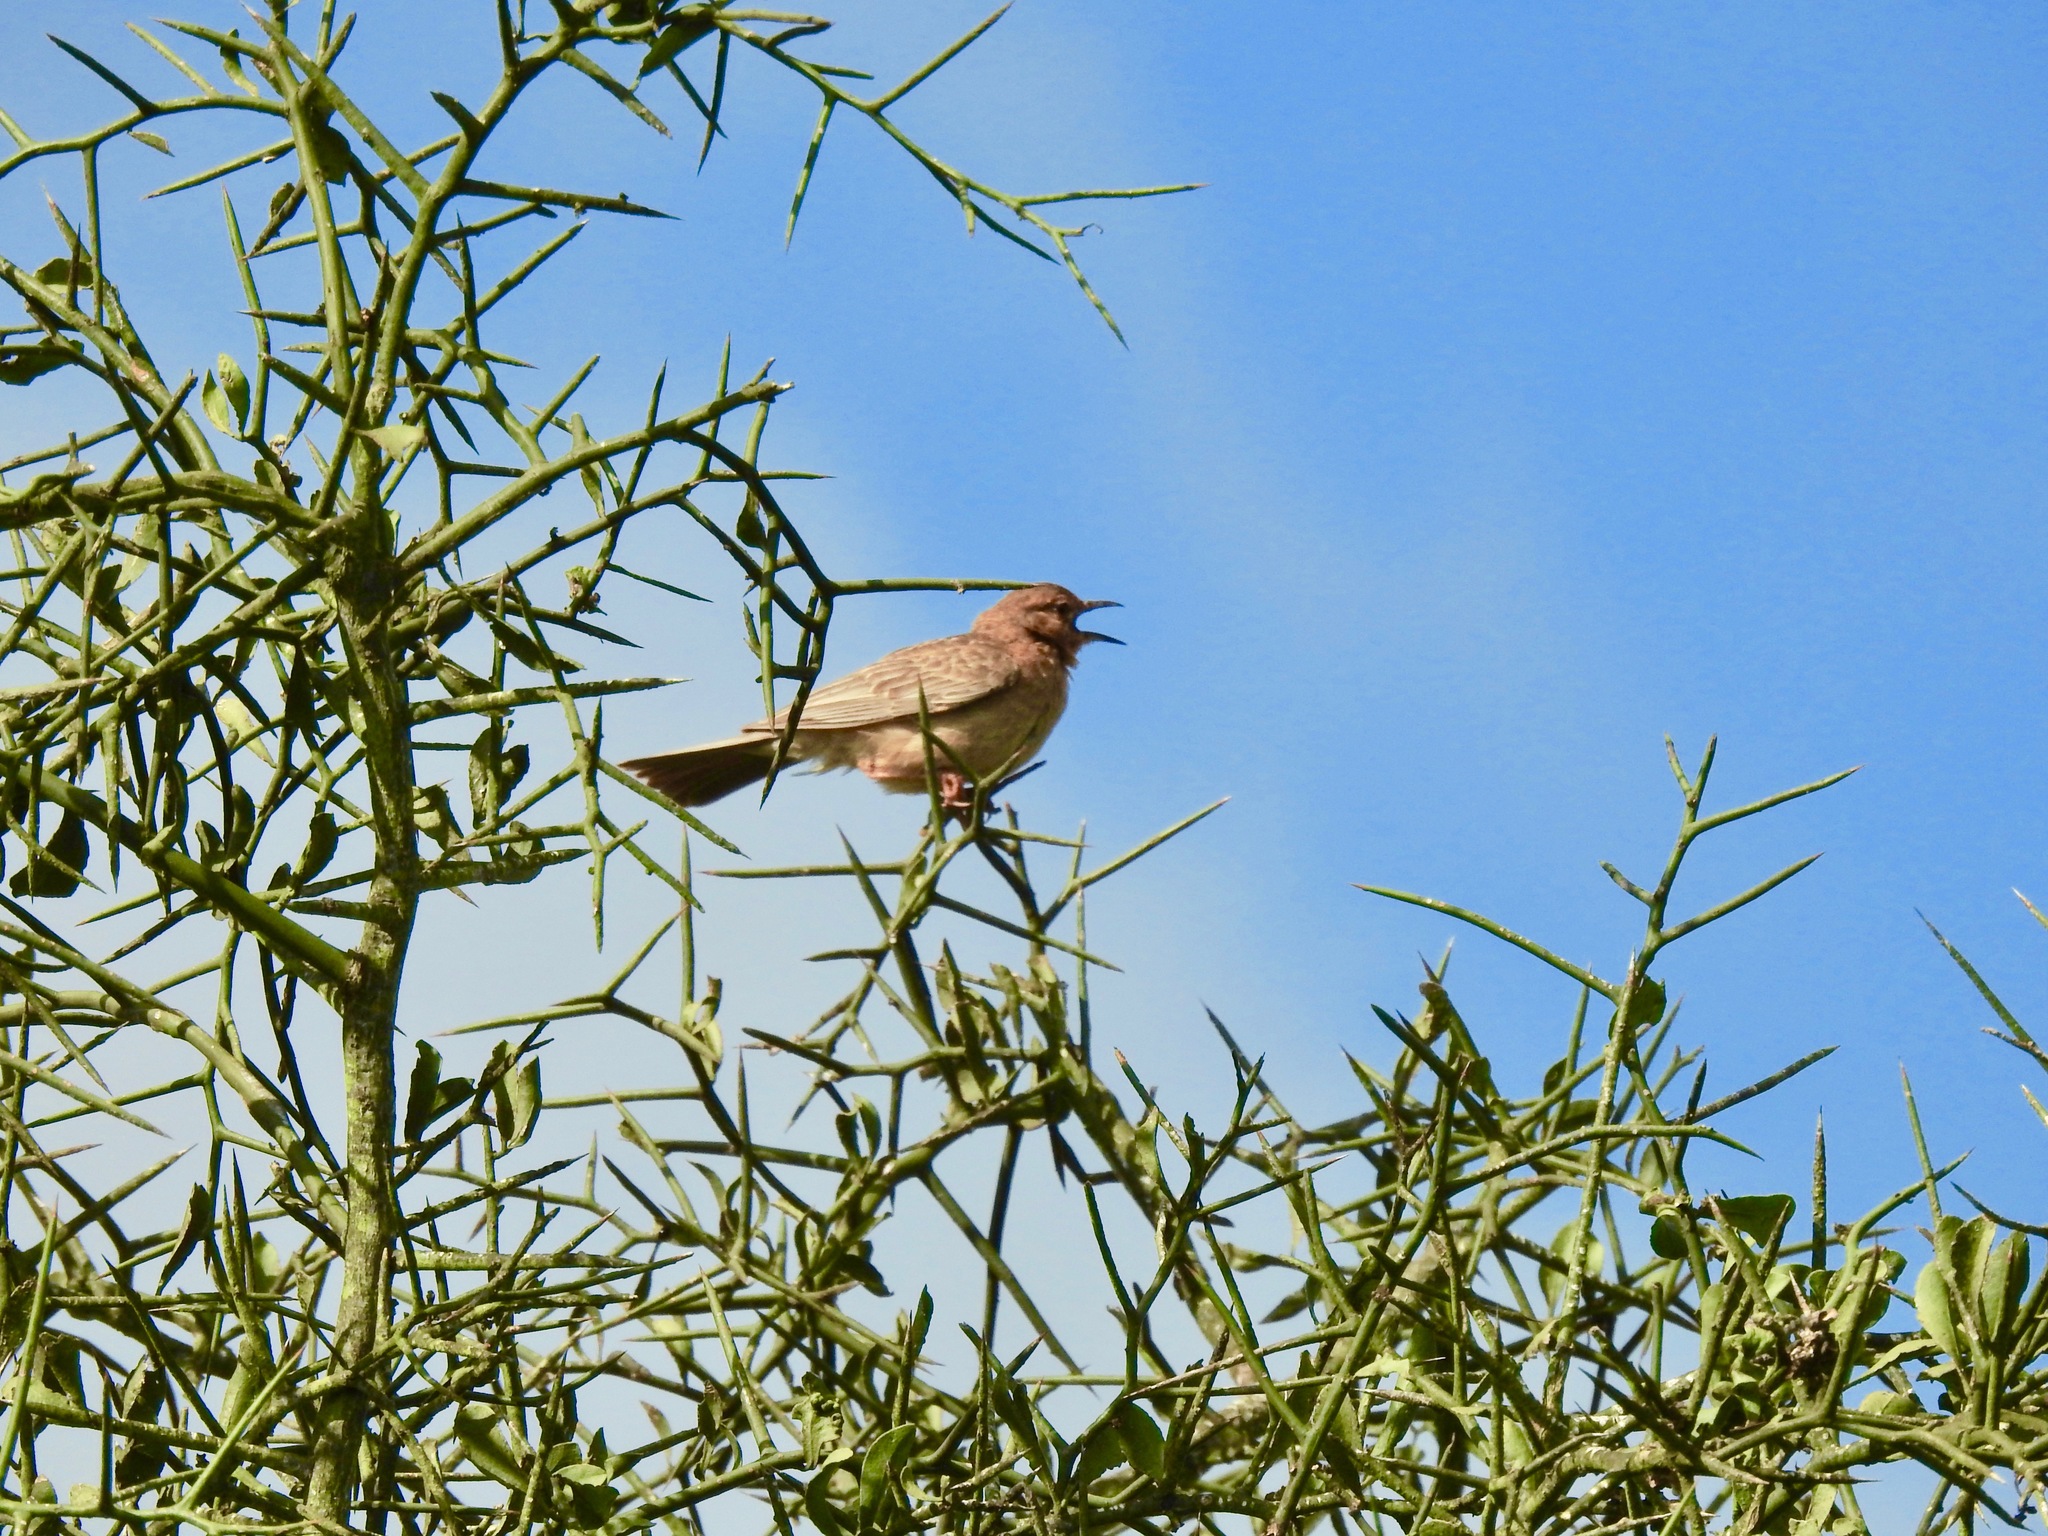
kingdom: Animalia
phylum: Chordata
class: Aves
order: Passeriformes
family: Alaudidae
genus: Calendulauda
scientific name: Calendulauda poecilosterna
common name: Pink-breasted lark
